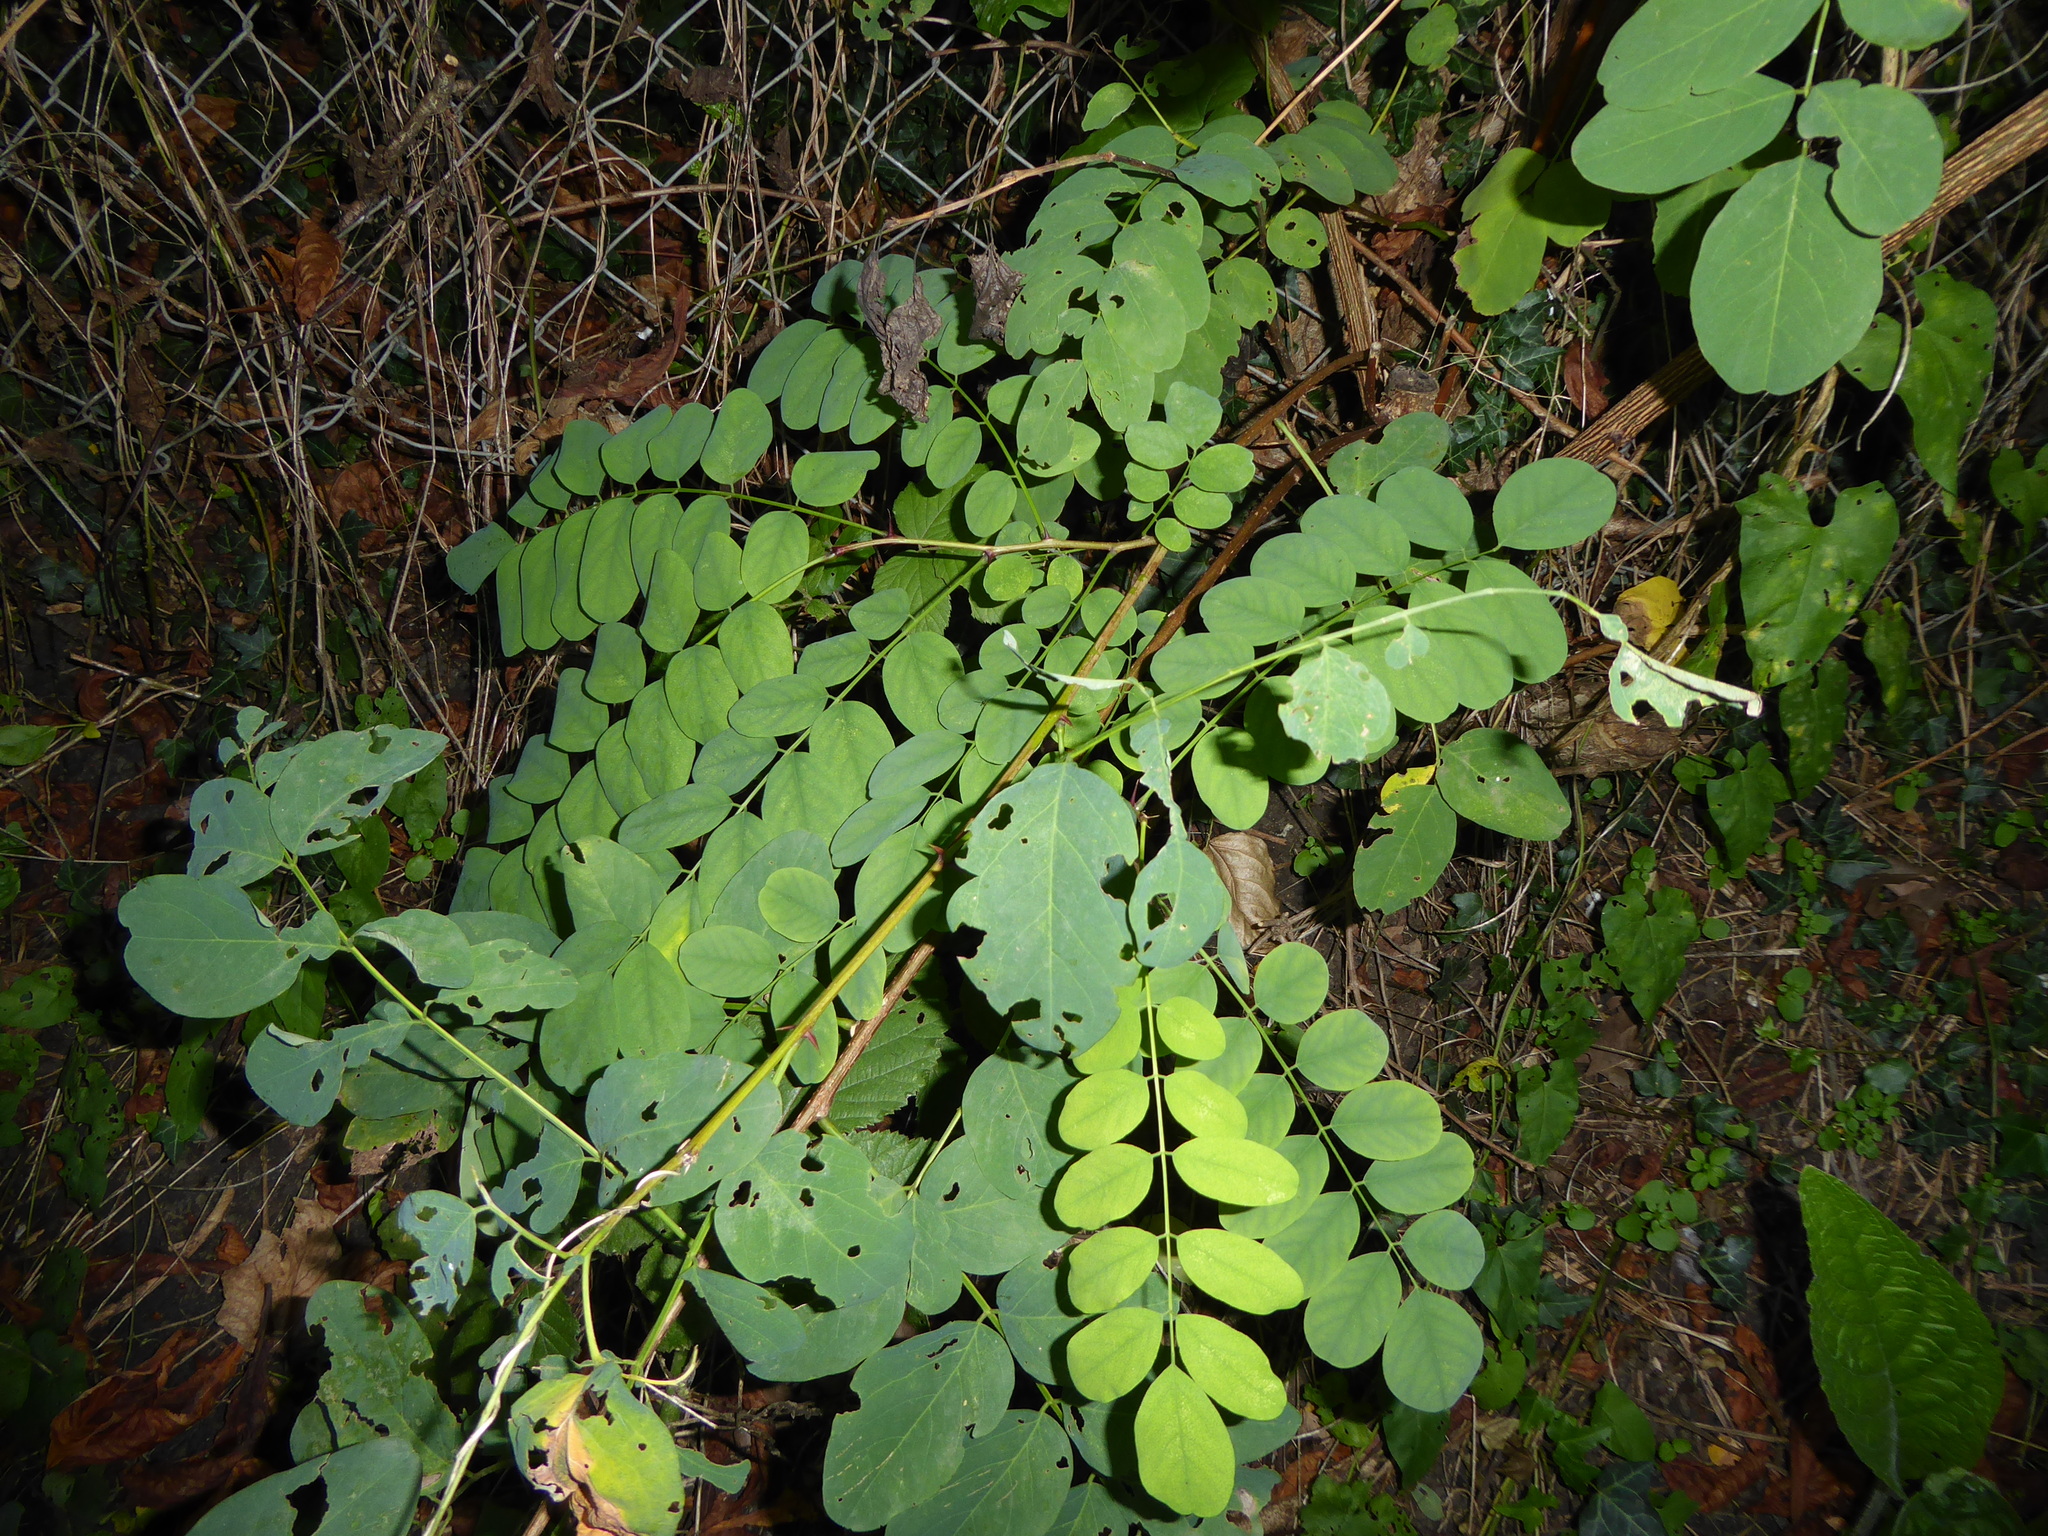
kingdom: Plantae
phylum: Tracheophyta
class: Magnoliopsida
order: Fabales
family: Fabaceae
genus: Robinia
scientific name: Robinia pseudoacacia
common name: Black locust
